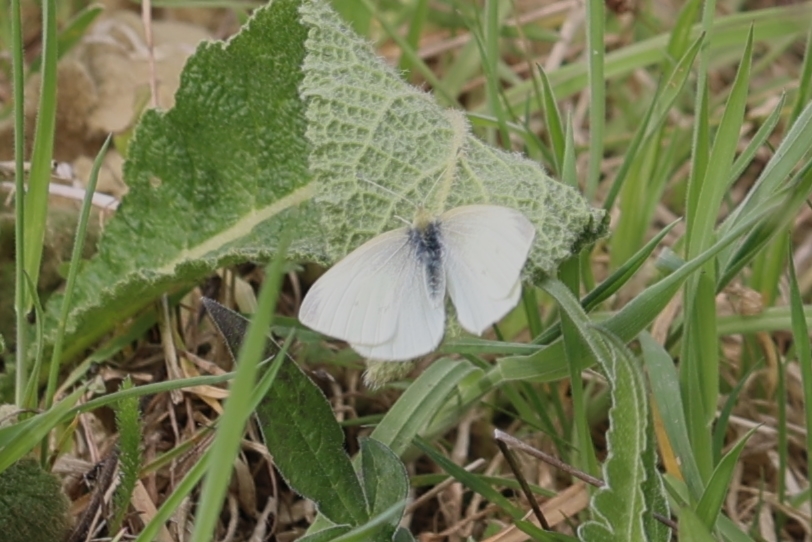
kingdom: Animalia
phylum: Arthropoda
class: Insecta
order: Lepidoptera
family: Pieridae
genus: Pieris
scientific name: Pieris rapae
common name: Small white
